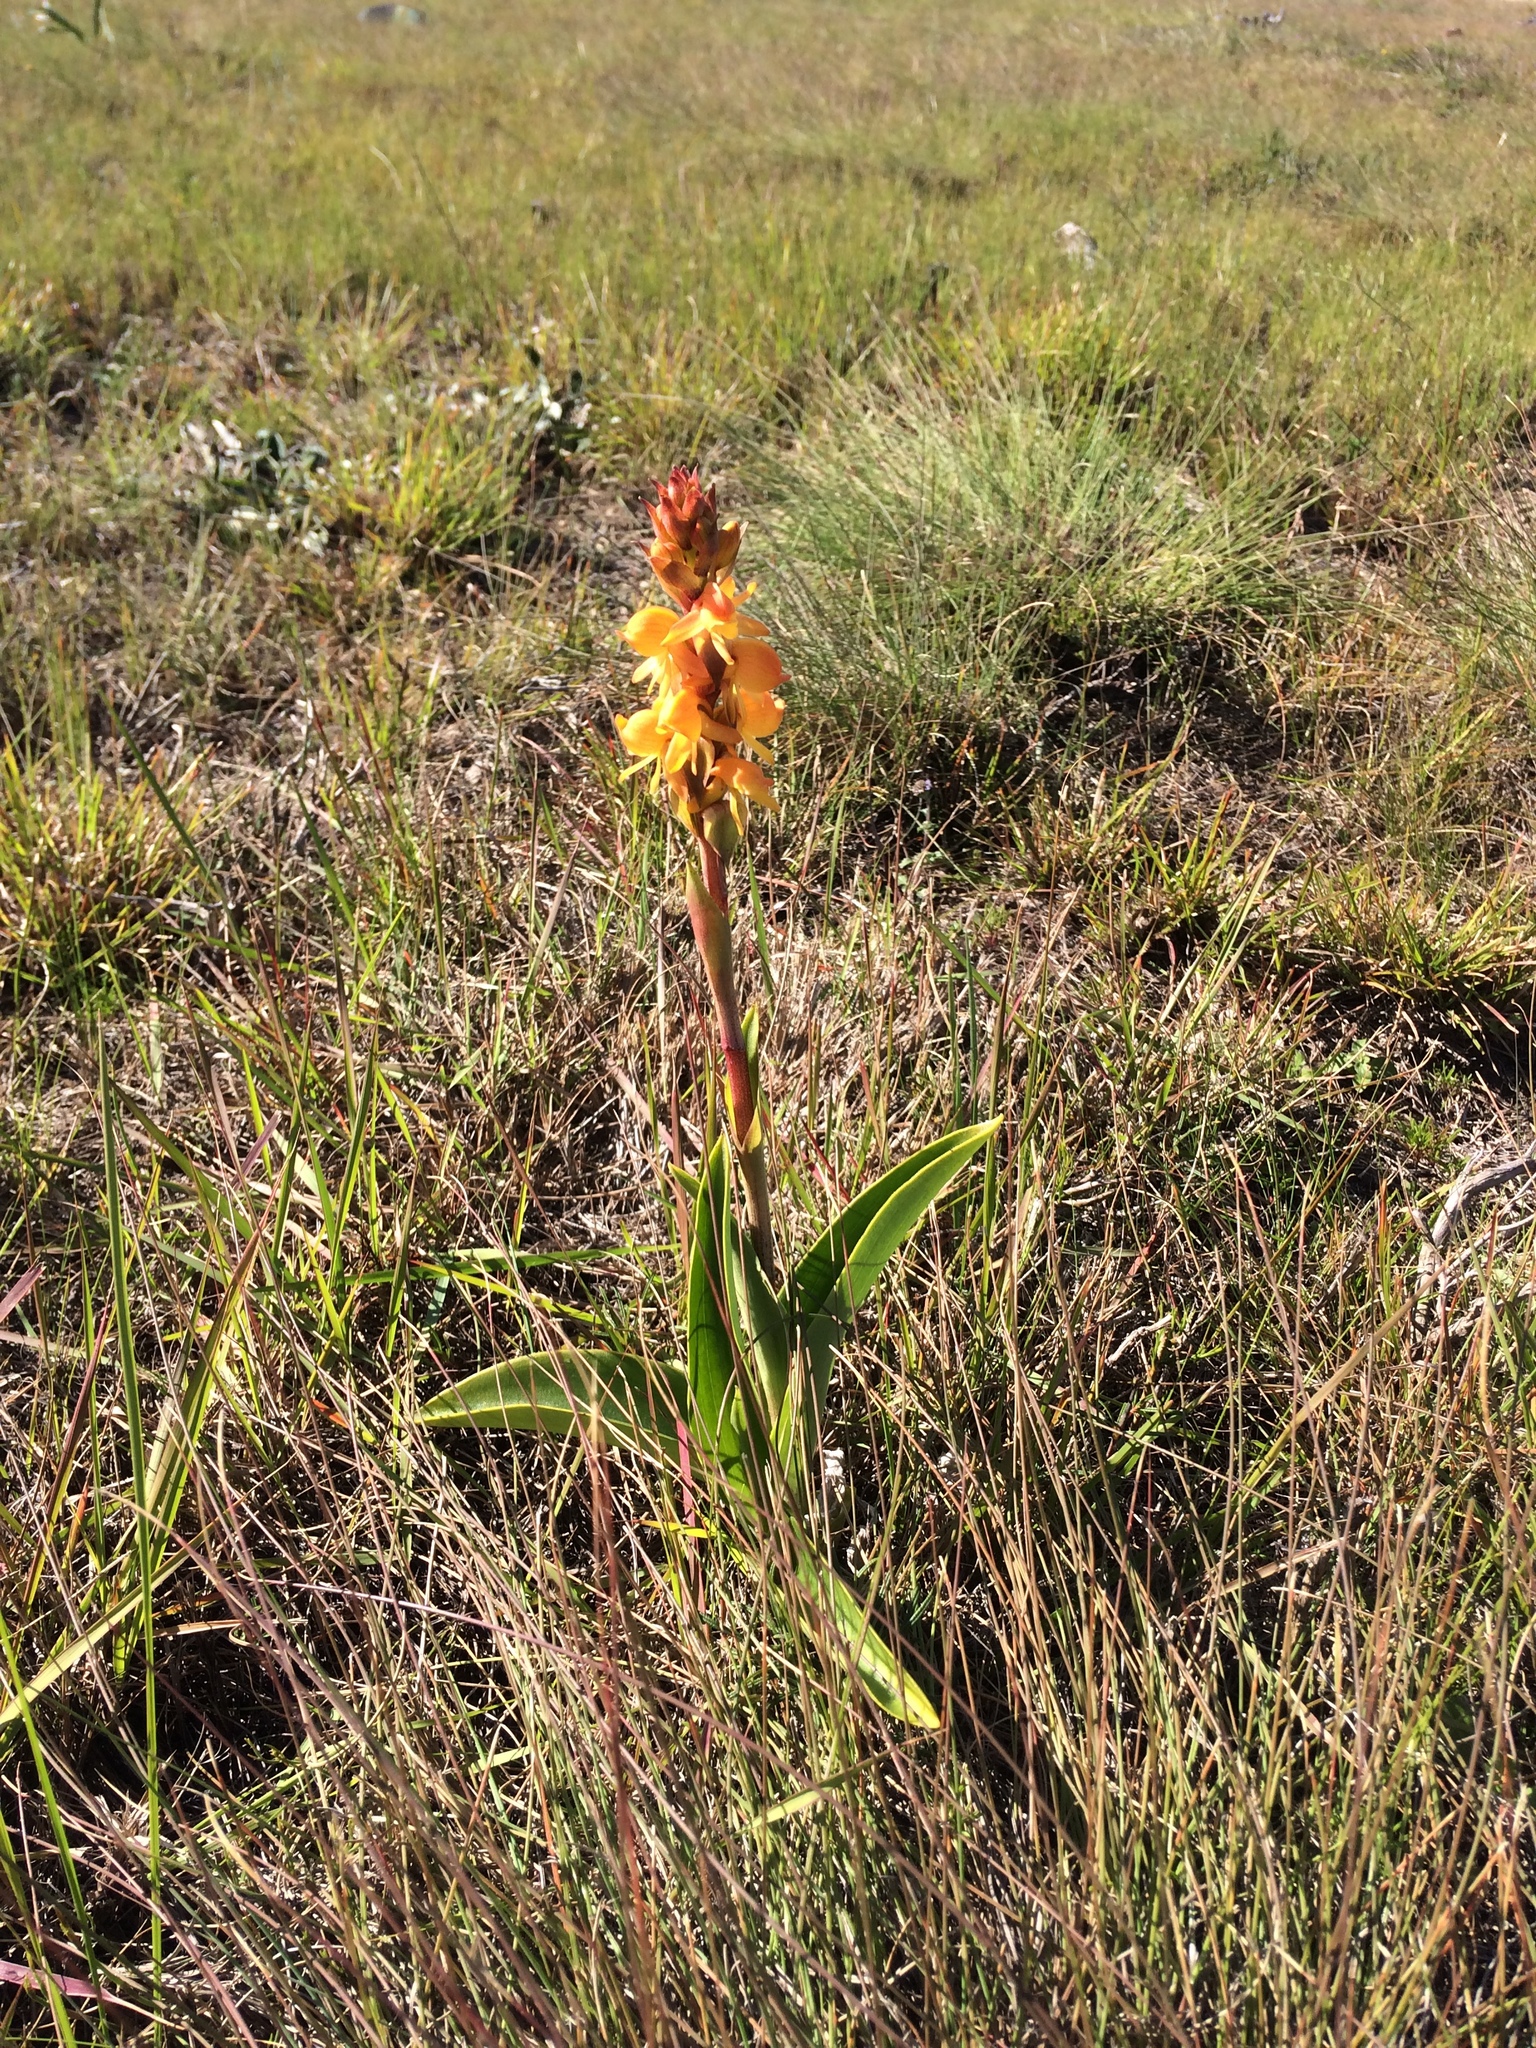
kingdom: Plantae
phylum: Tracheophyta
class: Liliopsida
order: Asparagales
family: Orchidaceae
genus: Satyrium
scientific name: Satyrium coriifolium
